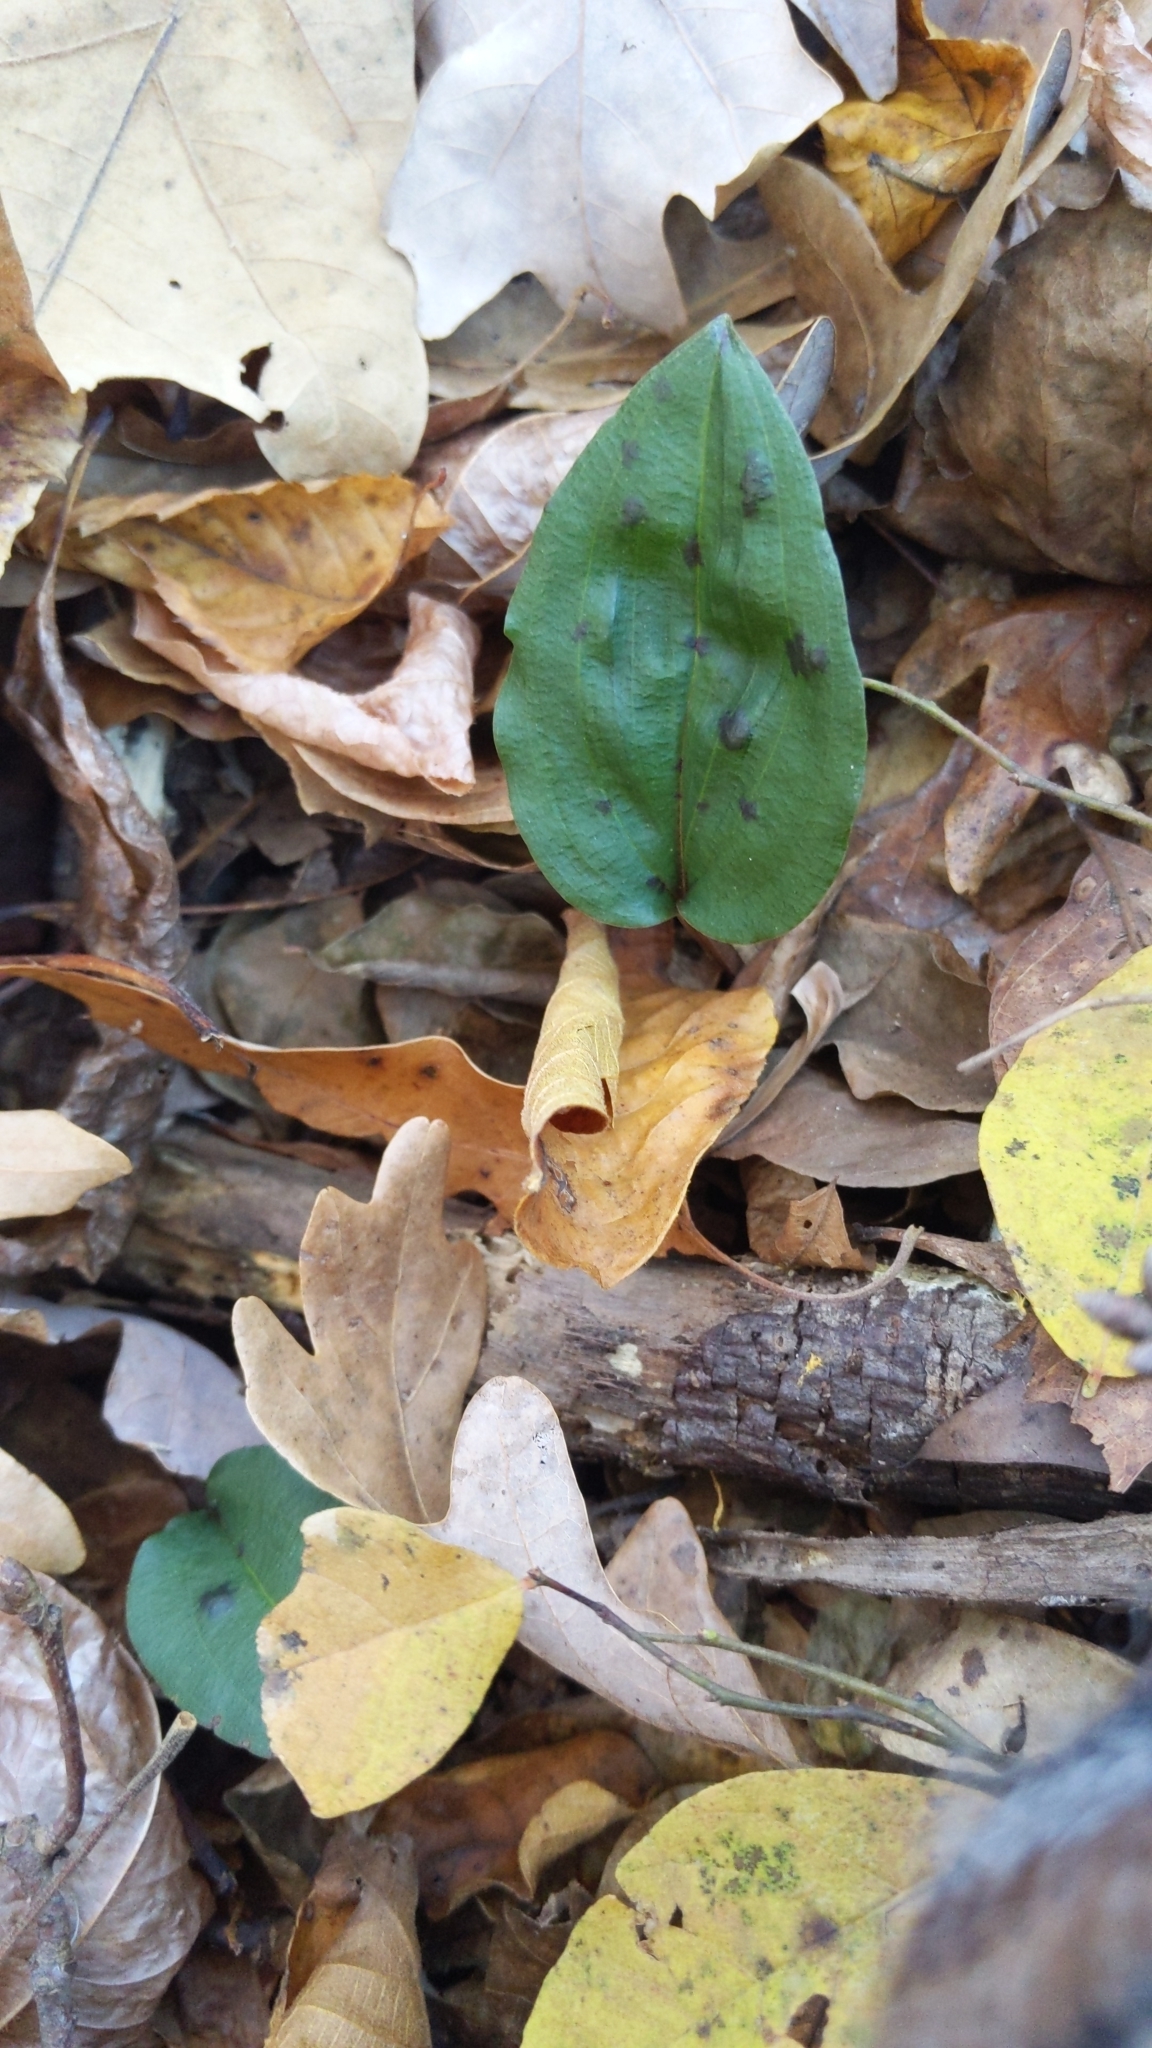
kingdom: Plantae
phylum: Tracheophyta
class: Liliopsida
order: Asparagales
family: Orchidaceae
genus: Tipularia
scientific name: Tipularia discolor
